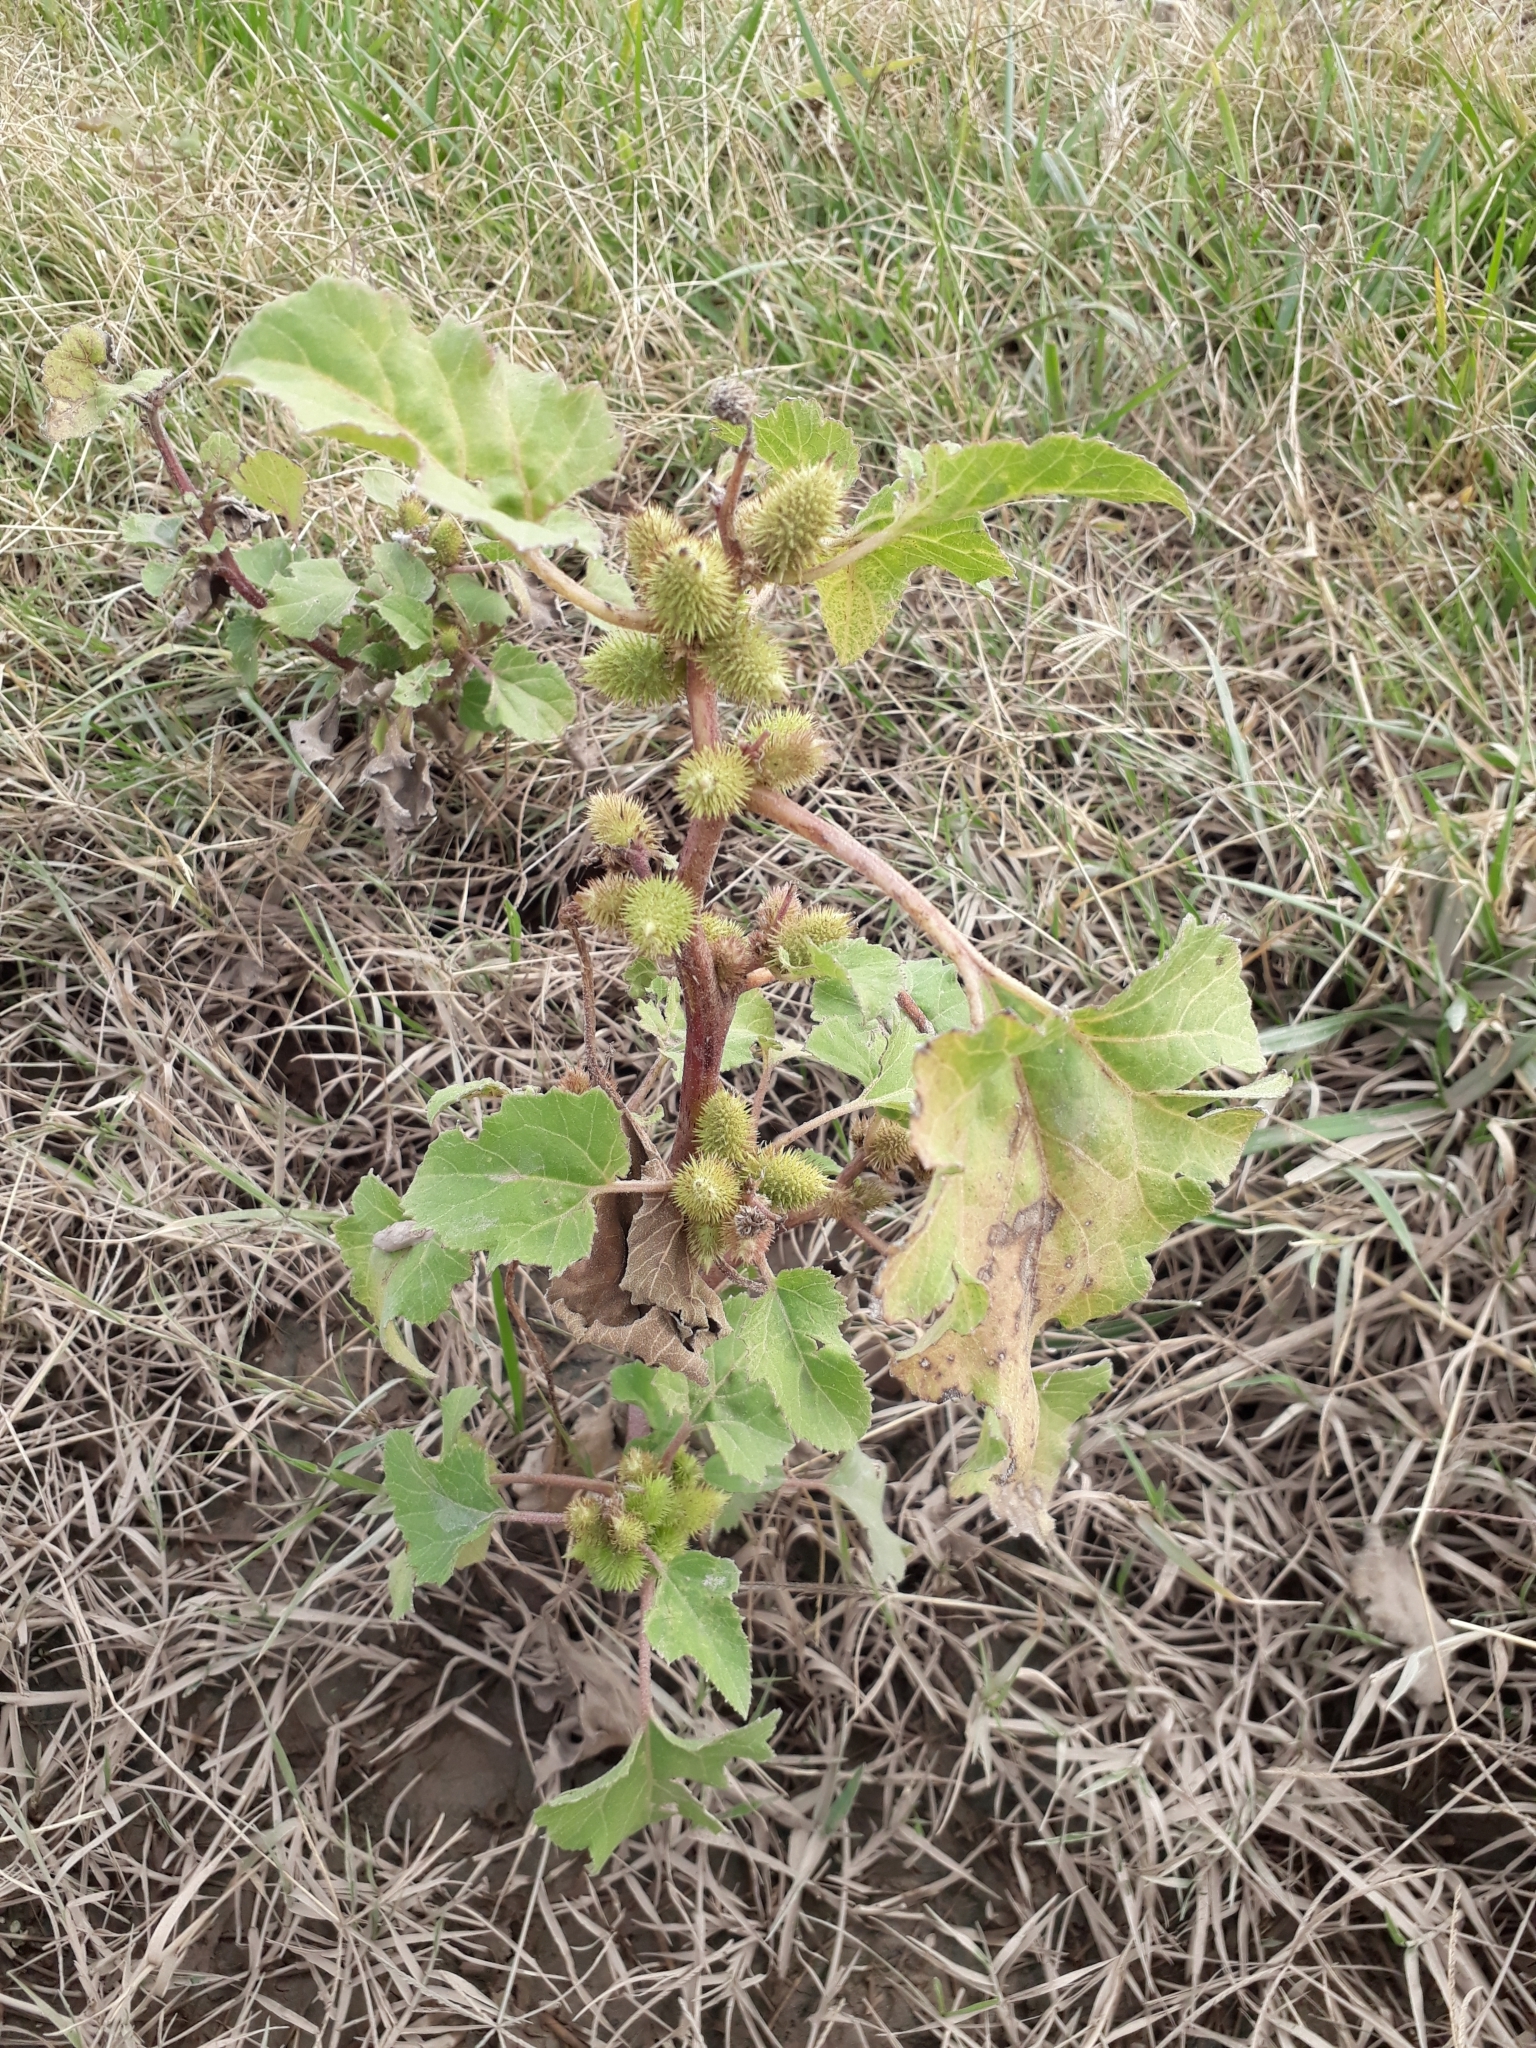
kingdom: Plantae
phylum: Tracheophyta
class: Magnoliopsida
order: Asterales
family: Asteraceae
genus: Xanthium
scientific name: Xanthium strumarium
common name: Rough cocklebur
